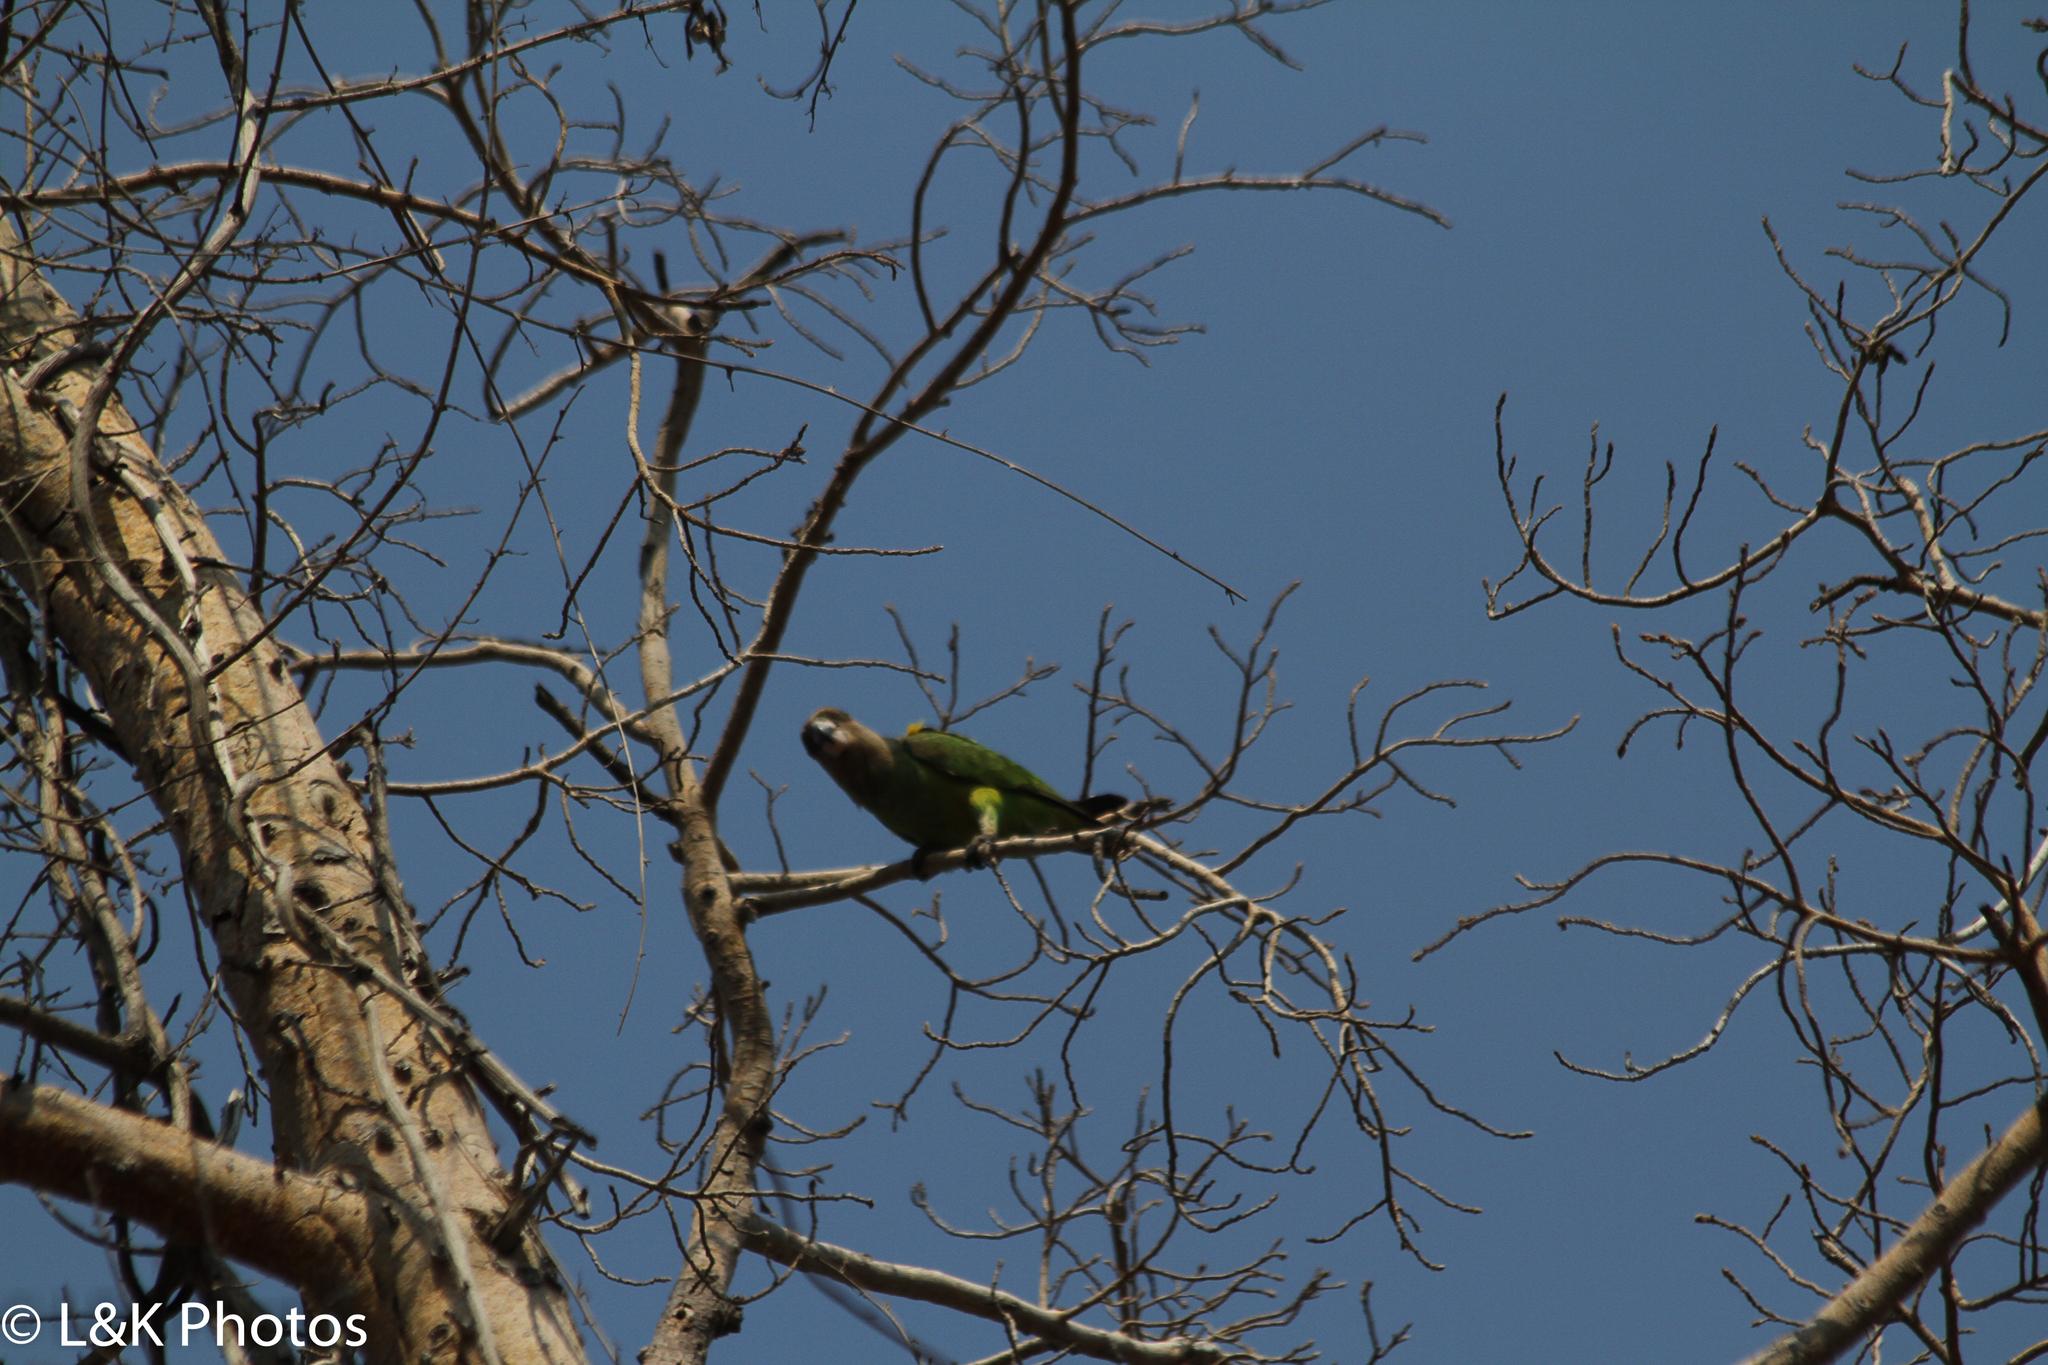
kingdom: Animalia
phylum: Chordata
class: Aves
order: Psittaciformes
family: Psittacidae
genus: Poicephalus
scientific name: Poicephalus cryptoxanthus
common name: Brown-headed parrot
